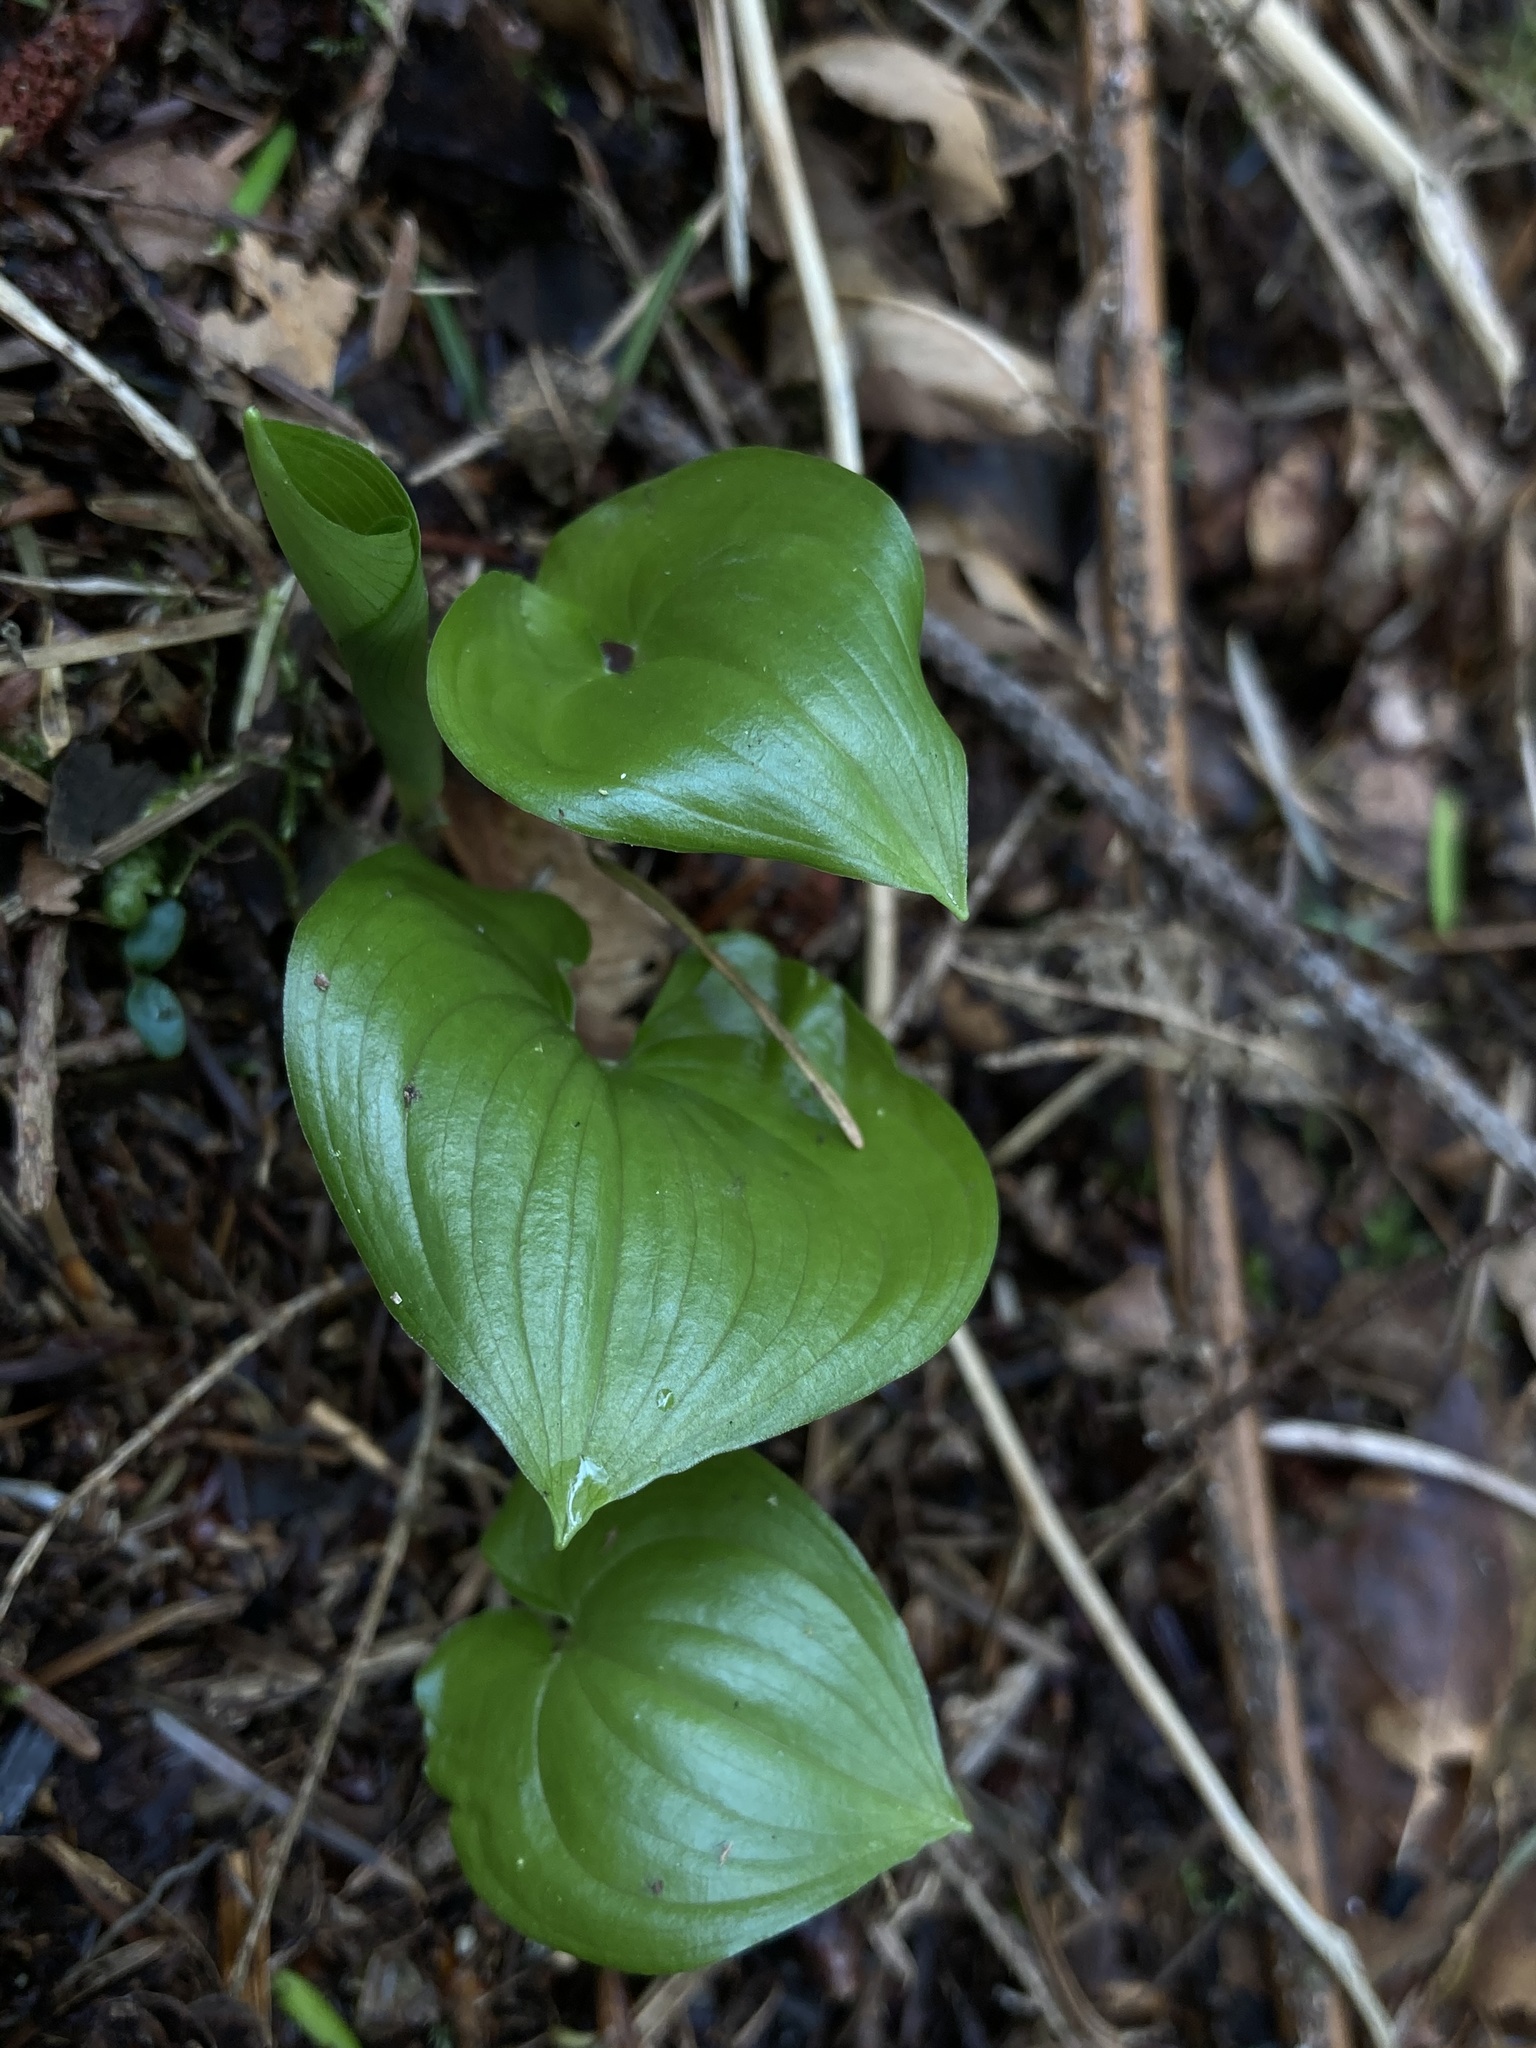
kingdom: Plantae
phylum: Tracheophyta
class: Liliopsida
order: Asparagales
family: Asparagaceae
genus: Maianthemum
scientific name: Maianthemum dilatatum
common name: False lily-of-the-valley
